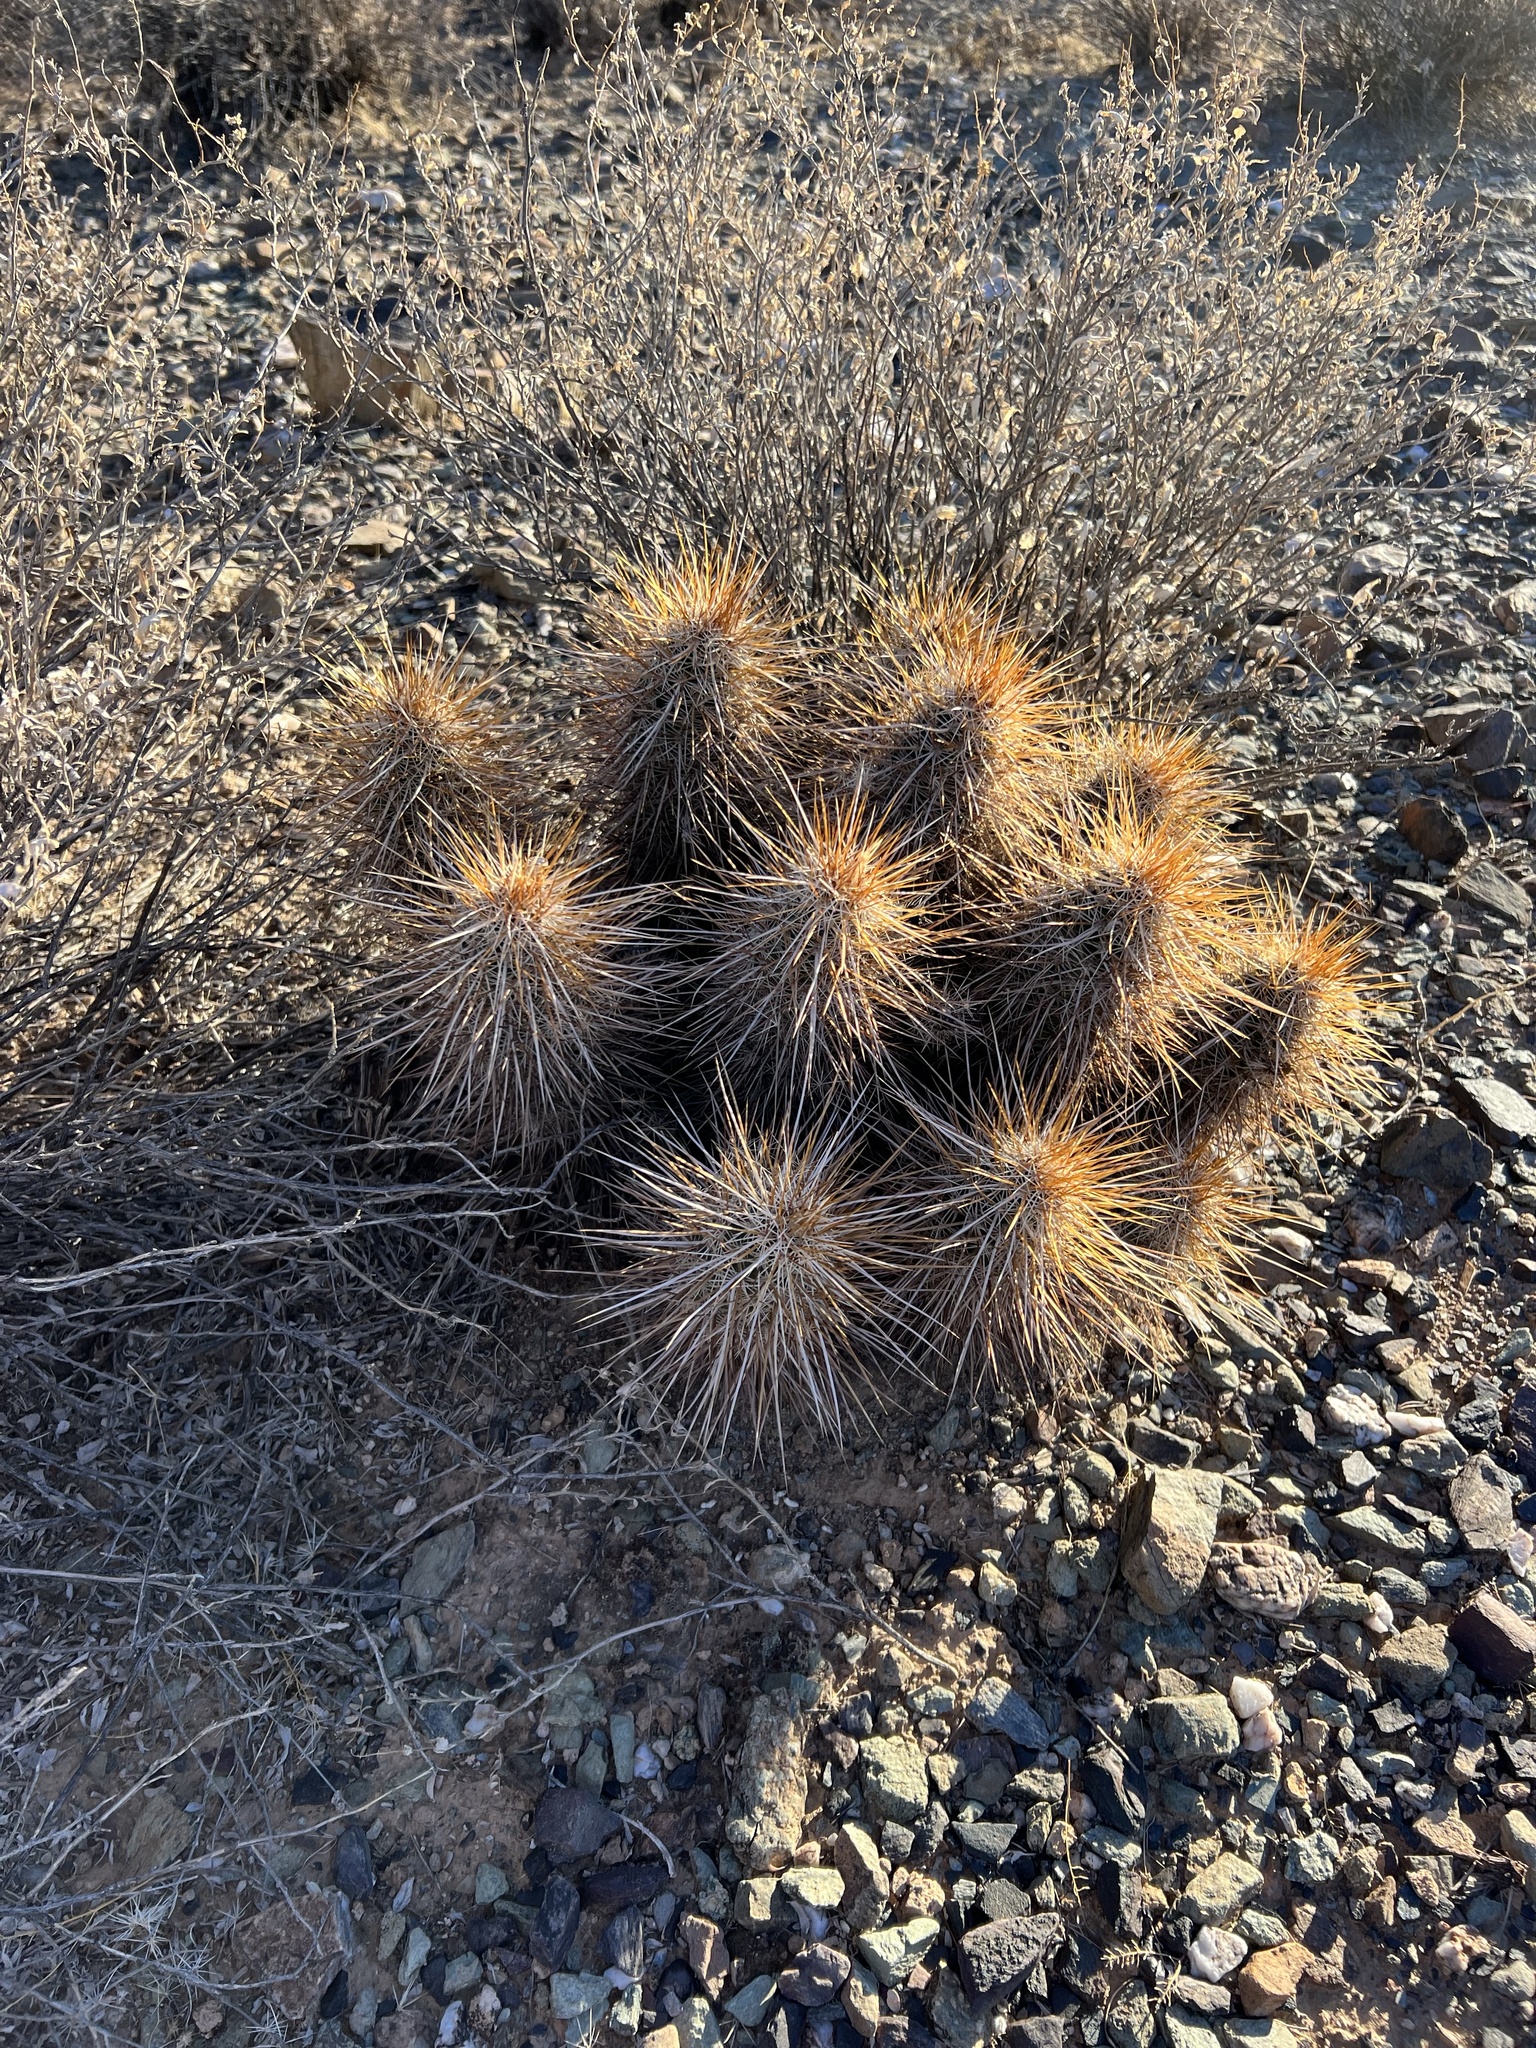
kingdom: Plantae
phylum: Tracheophyta
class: Magnoliopsida
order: Caryophyllales
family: Cactaceae
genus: Echinocereus
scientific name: Echinocereus engelmannii
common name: Engelmann's hedgehog cactus
